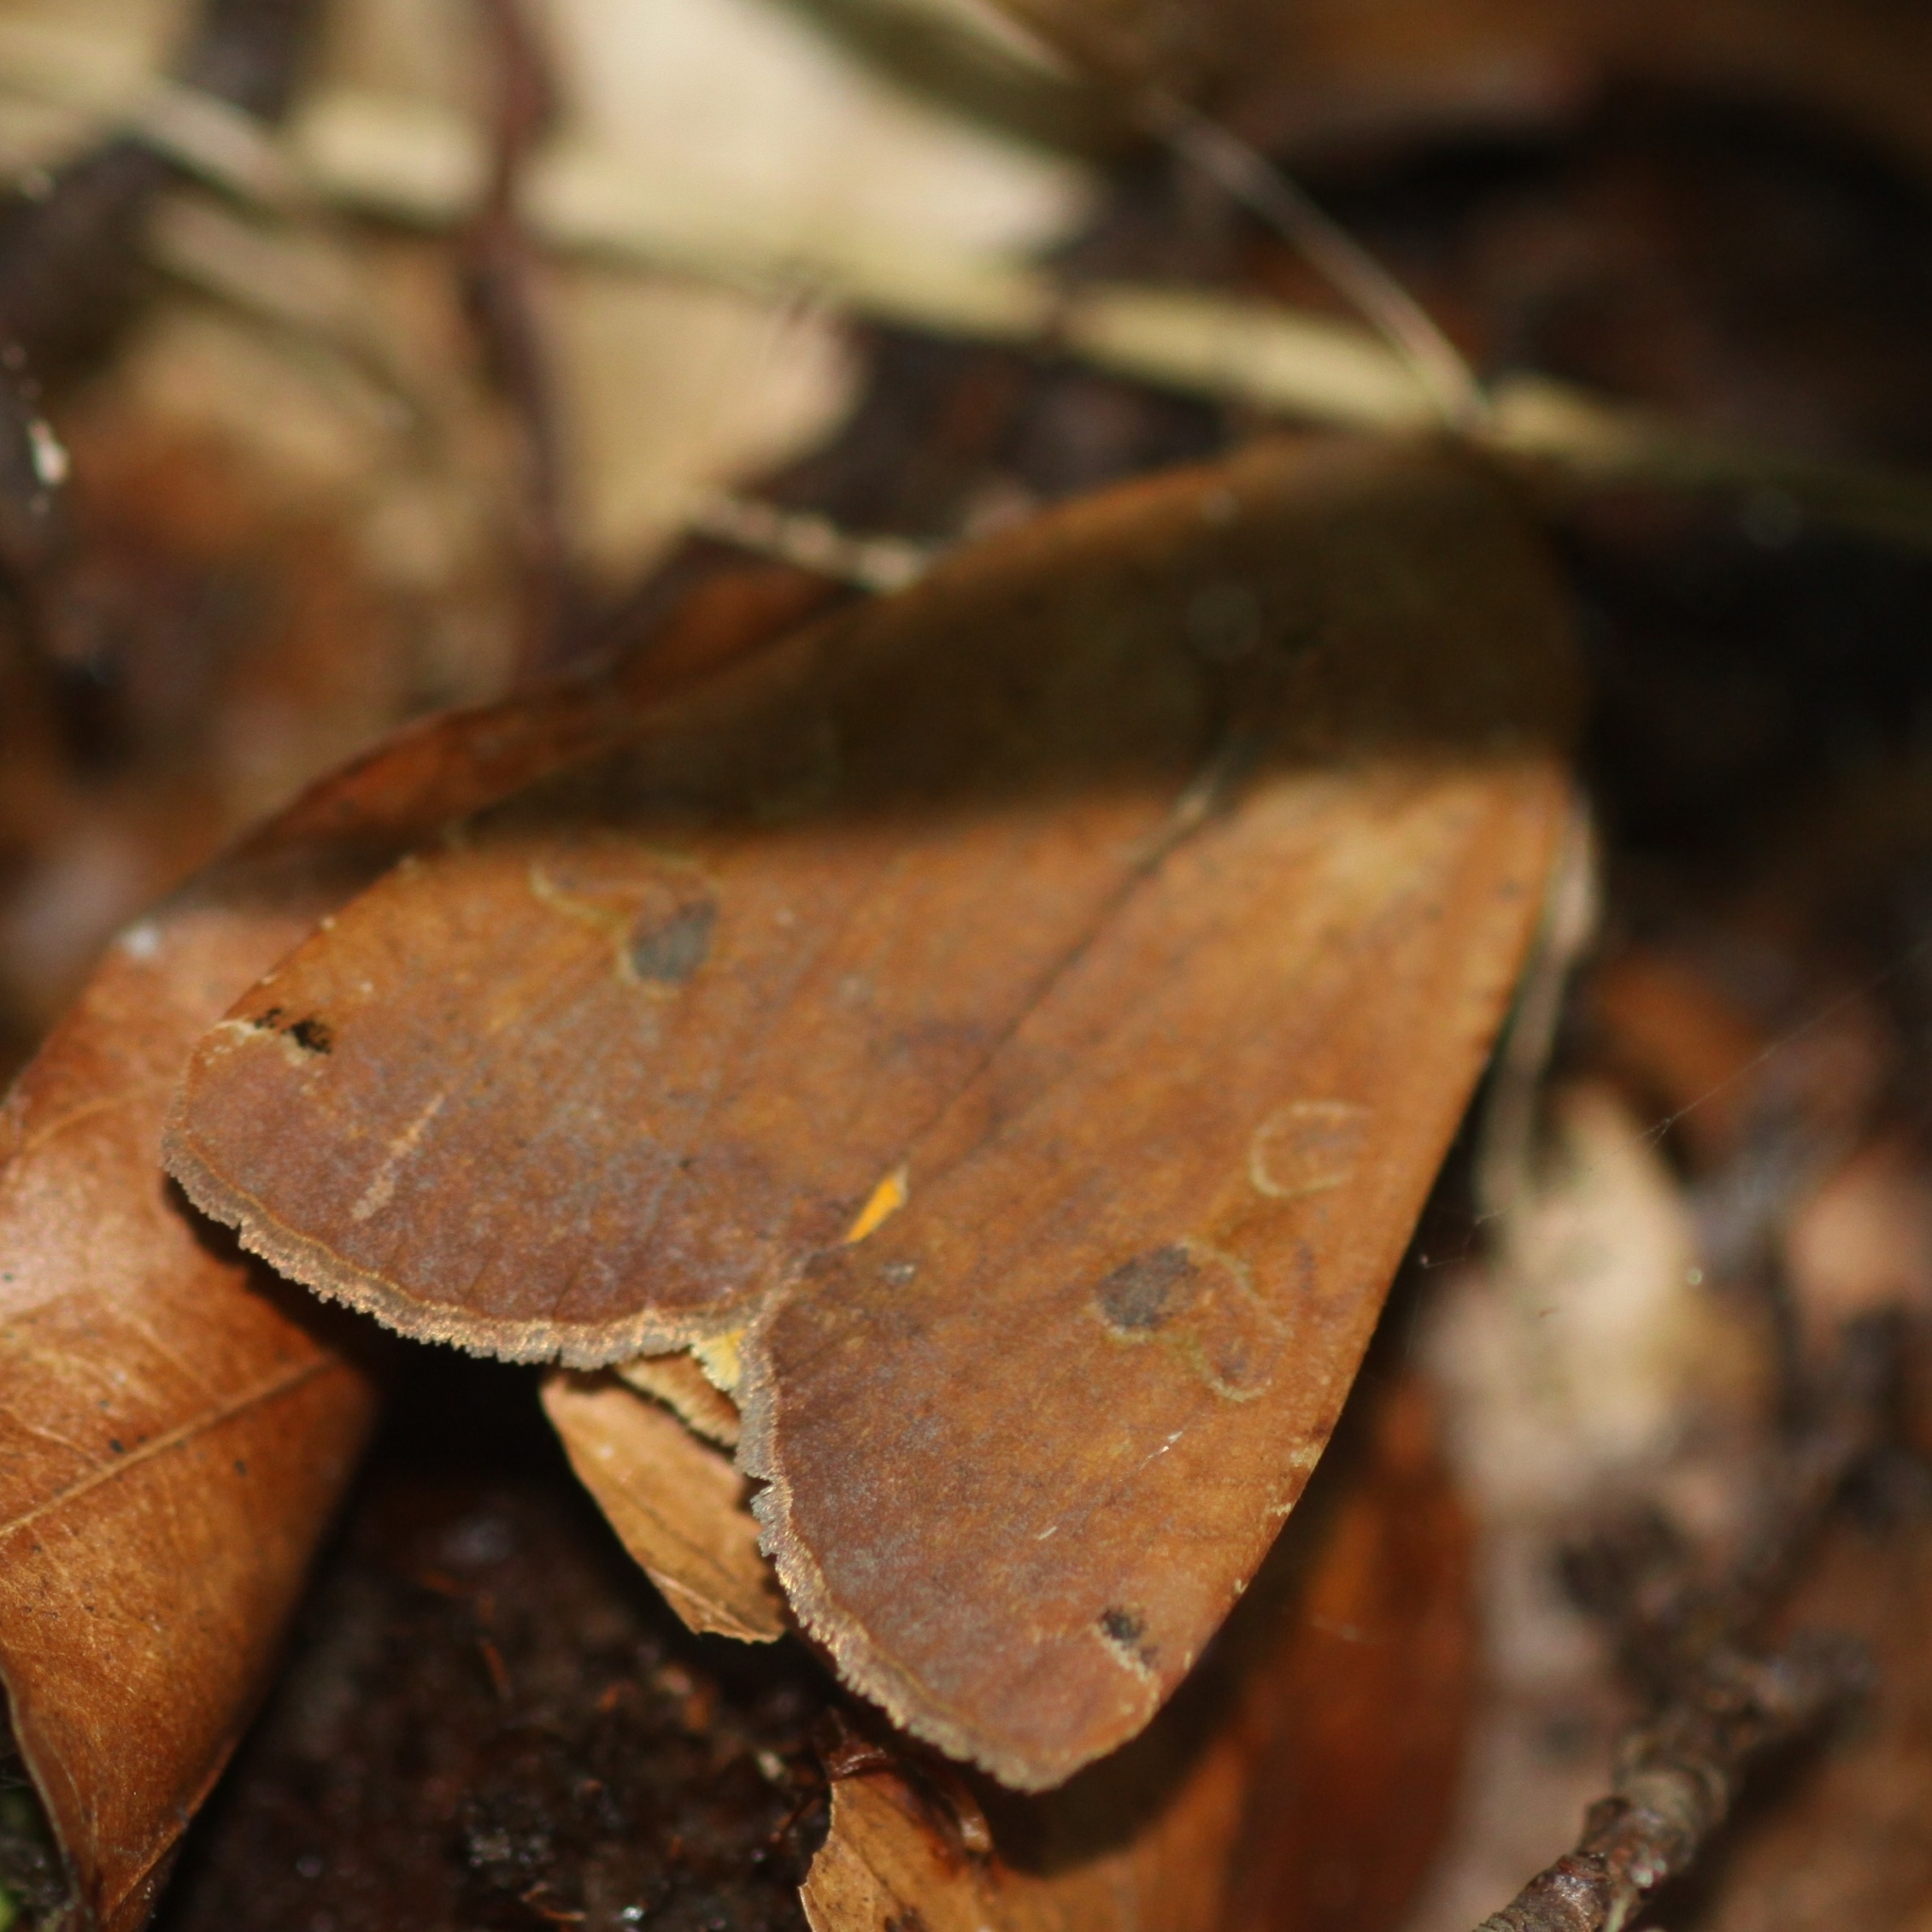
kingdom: Animalia
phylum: Arthropoda
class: Insecta
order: Lepidoptera
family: Noctuidae
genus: Noctua
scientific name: Noctua pronuba
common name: Large yellow underwing
